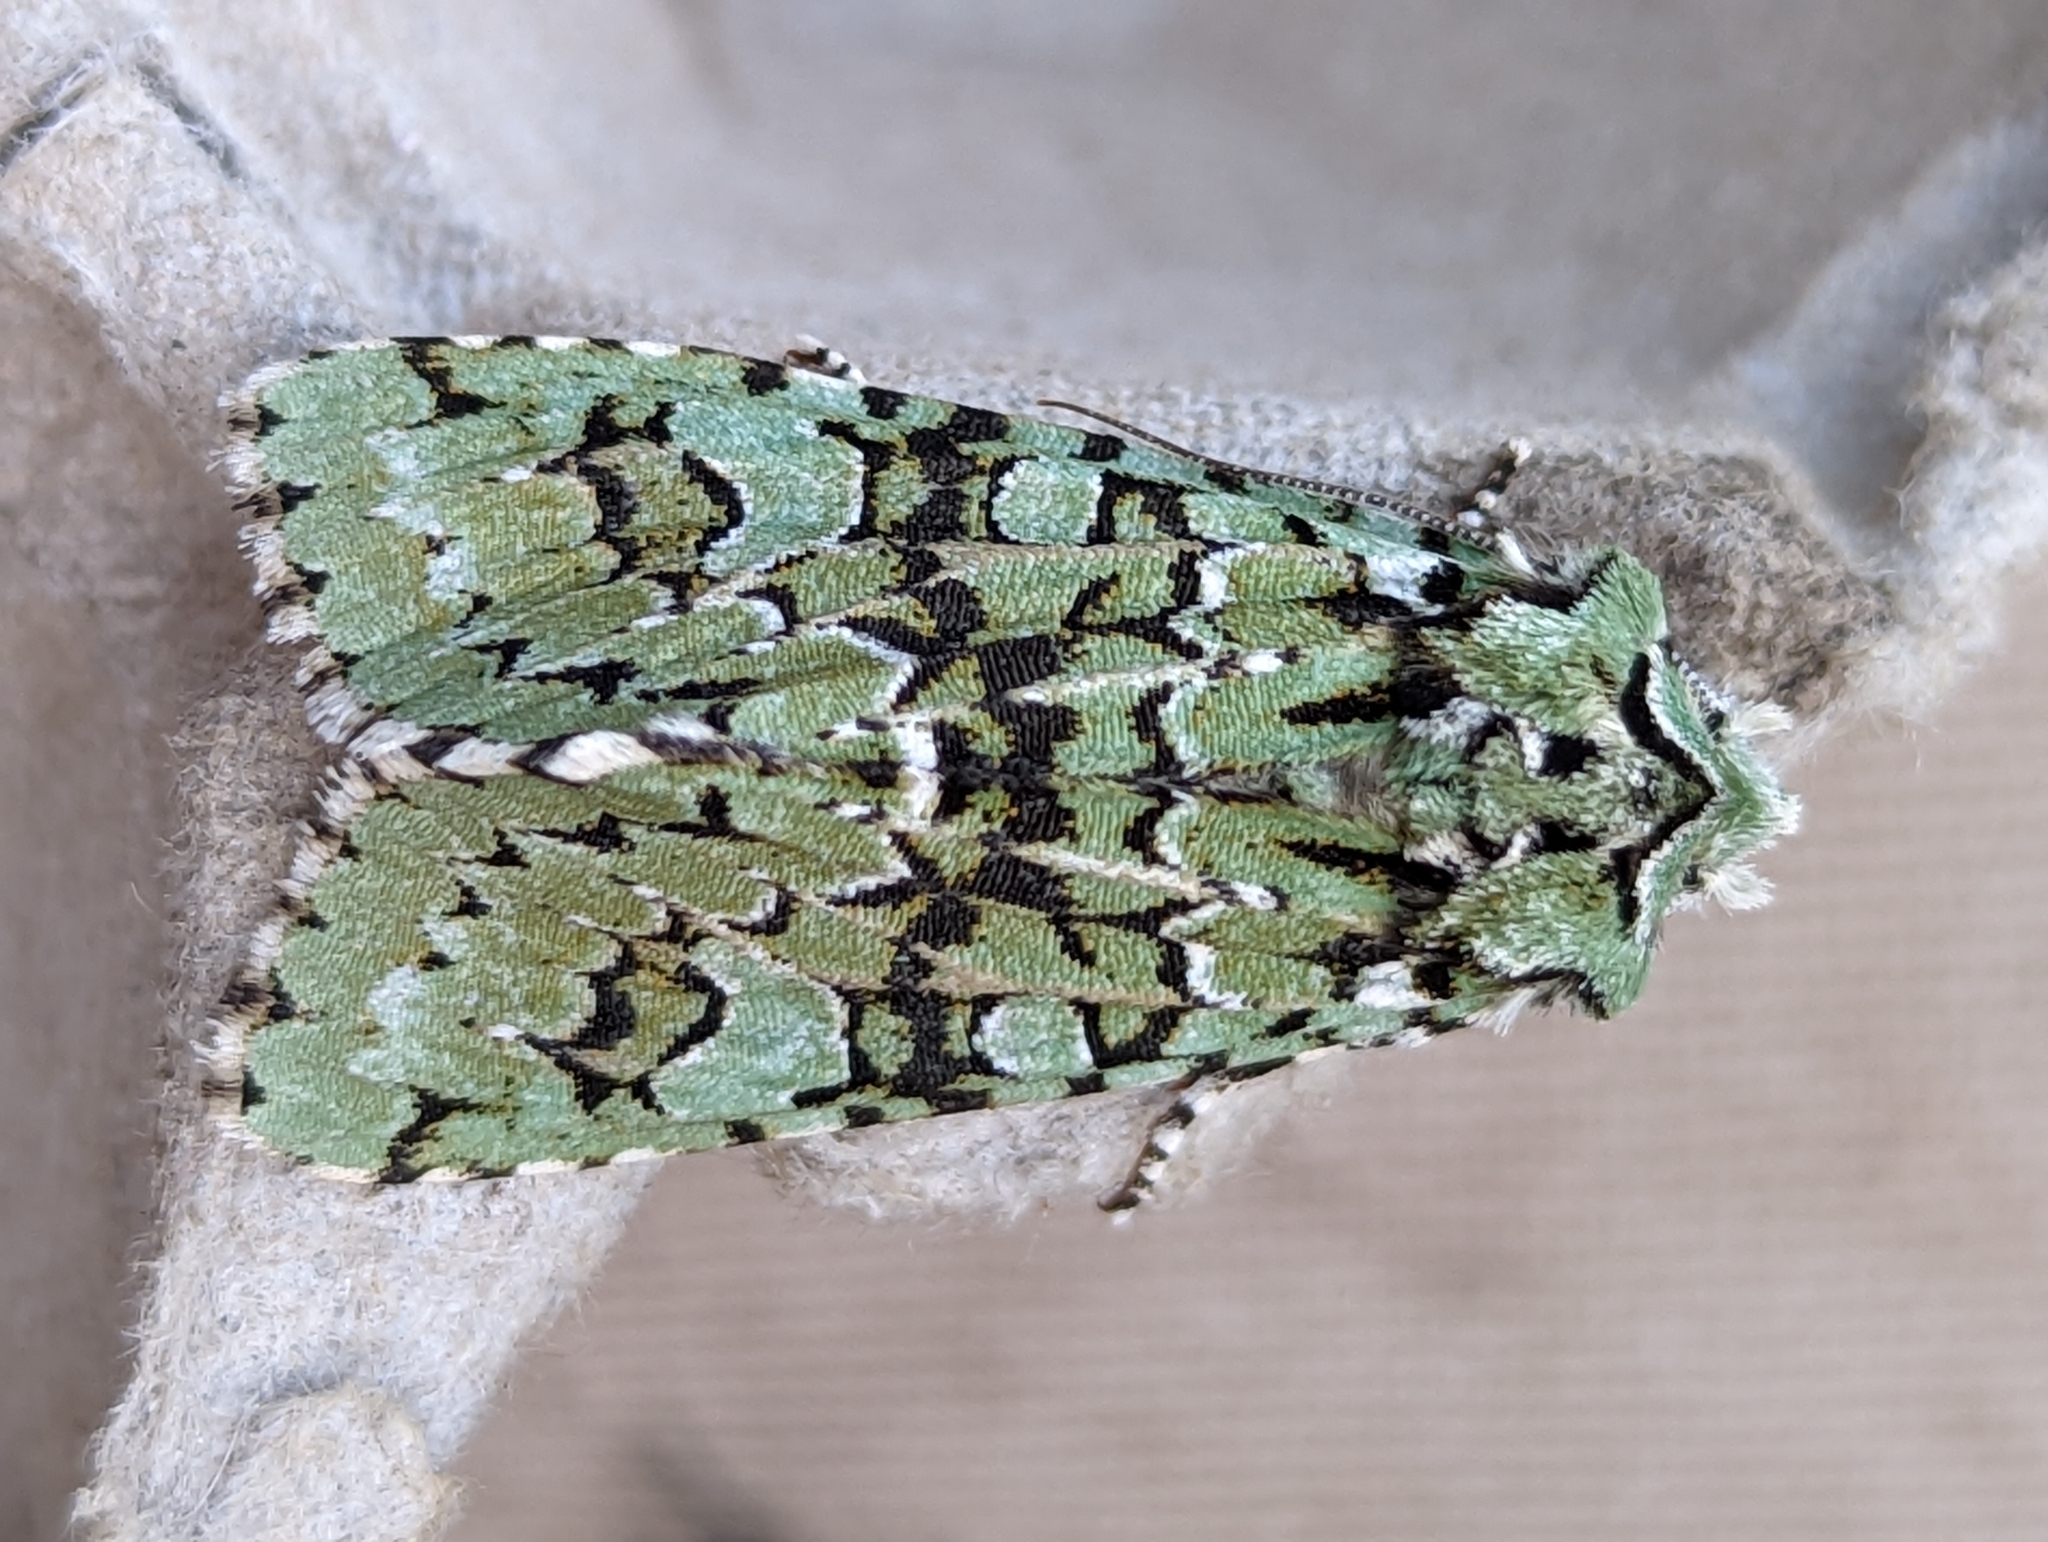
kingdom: Animalia
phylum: Arthropoda
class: Insecta
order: Lepidoptera
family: Noctuidae
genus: Griposia
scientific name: Griposia aprilina
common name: Merveille du jour
